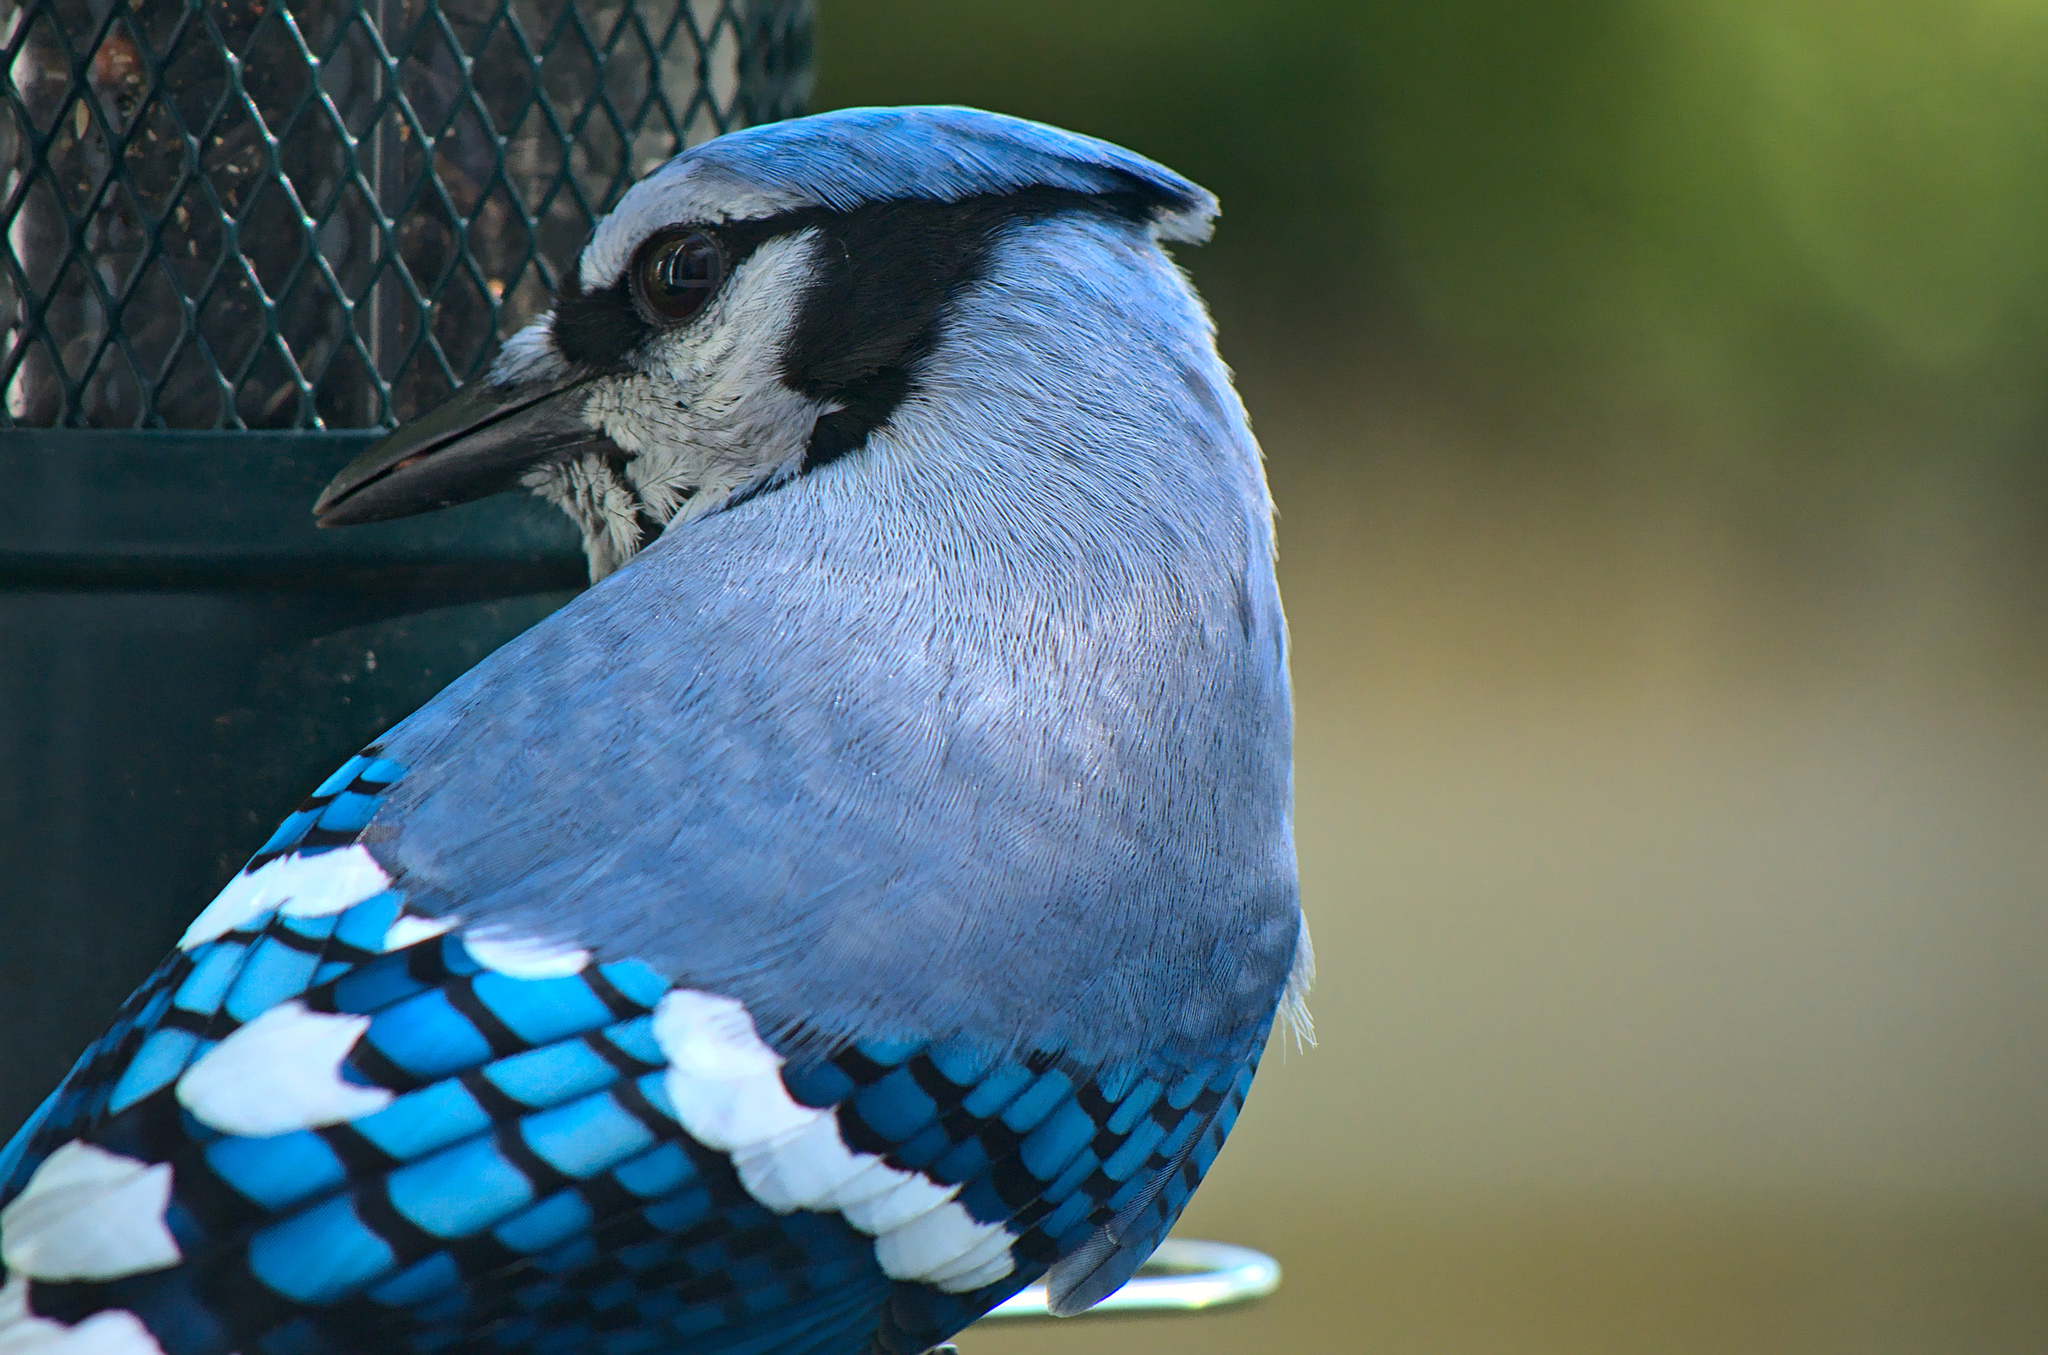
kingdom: Animalia
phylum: Chordata
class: Aves
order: Passeriformes
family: Corvidae
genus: Cyanocitta
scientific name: Cyanocitta cristata
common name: Blue jay
